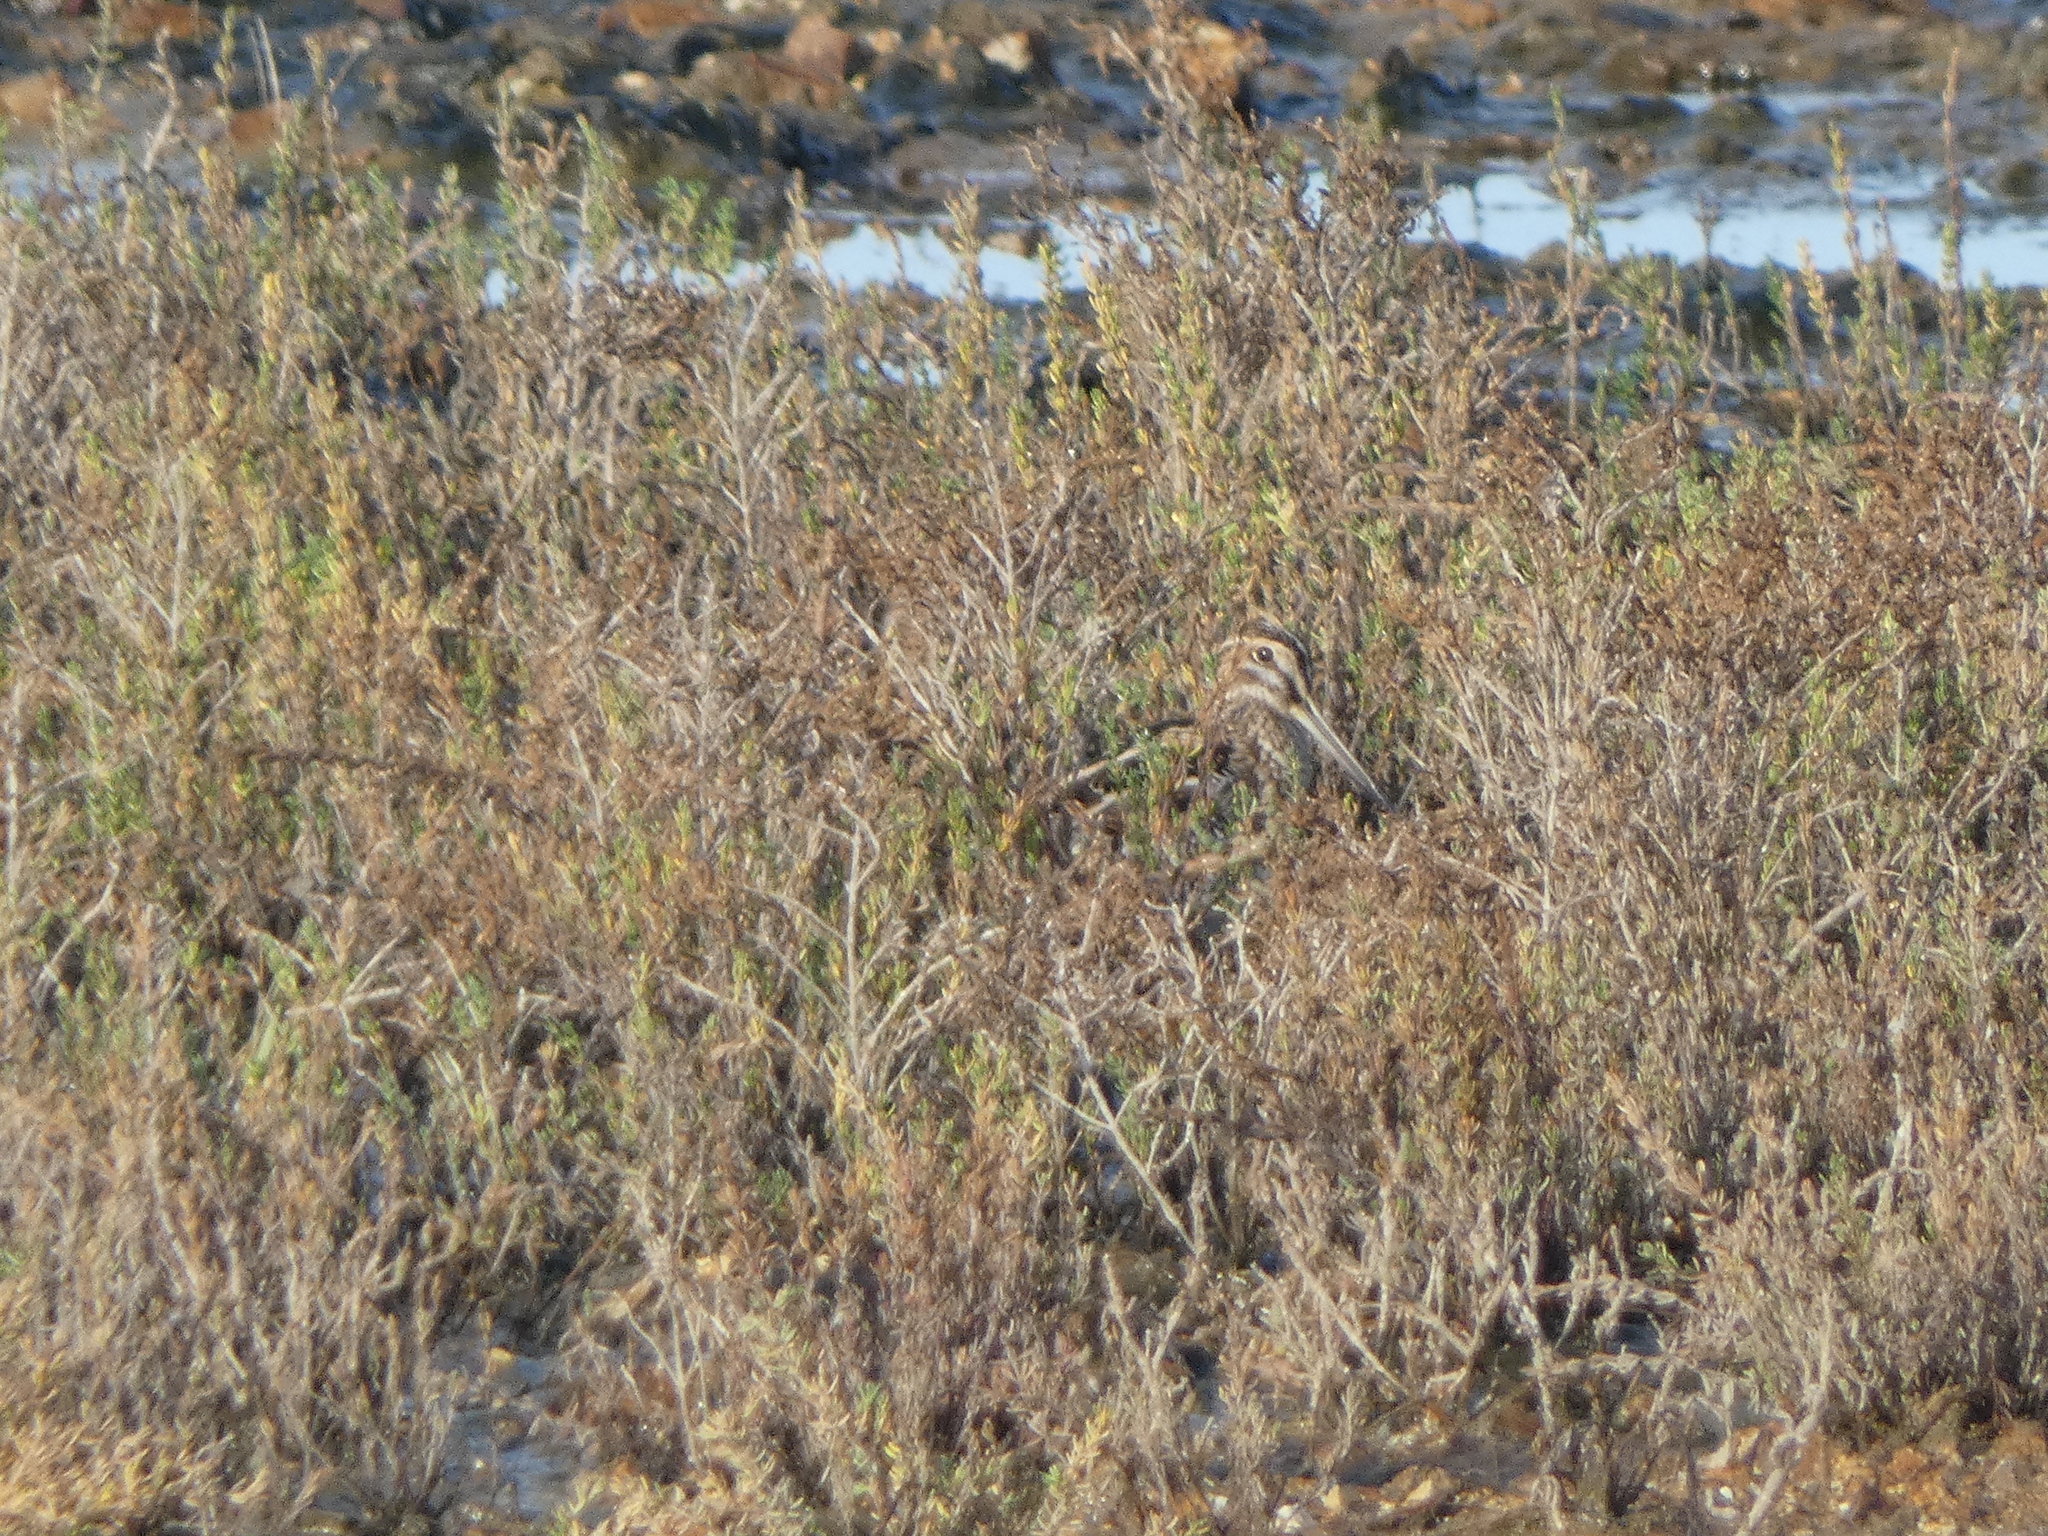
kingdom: Animalia
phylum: Chordata
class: Aves
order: Charadriiformes
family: Scolopacidae
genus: Gallinago
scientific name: Gallinago delicata
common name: Wilson's snipe
